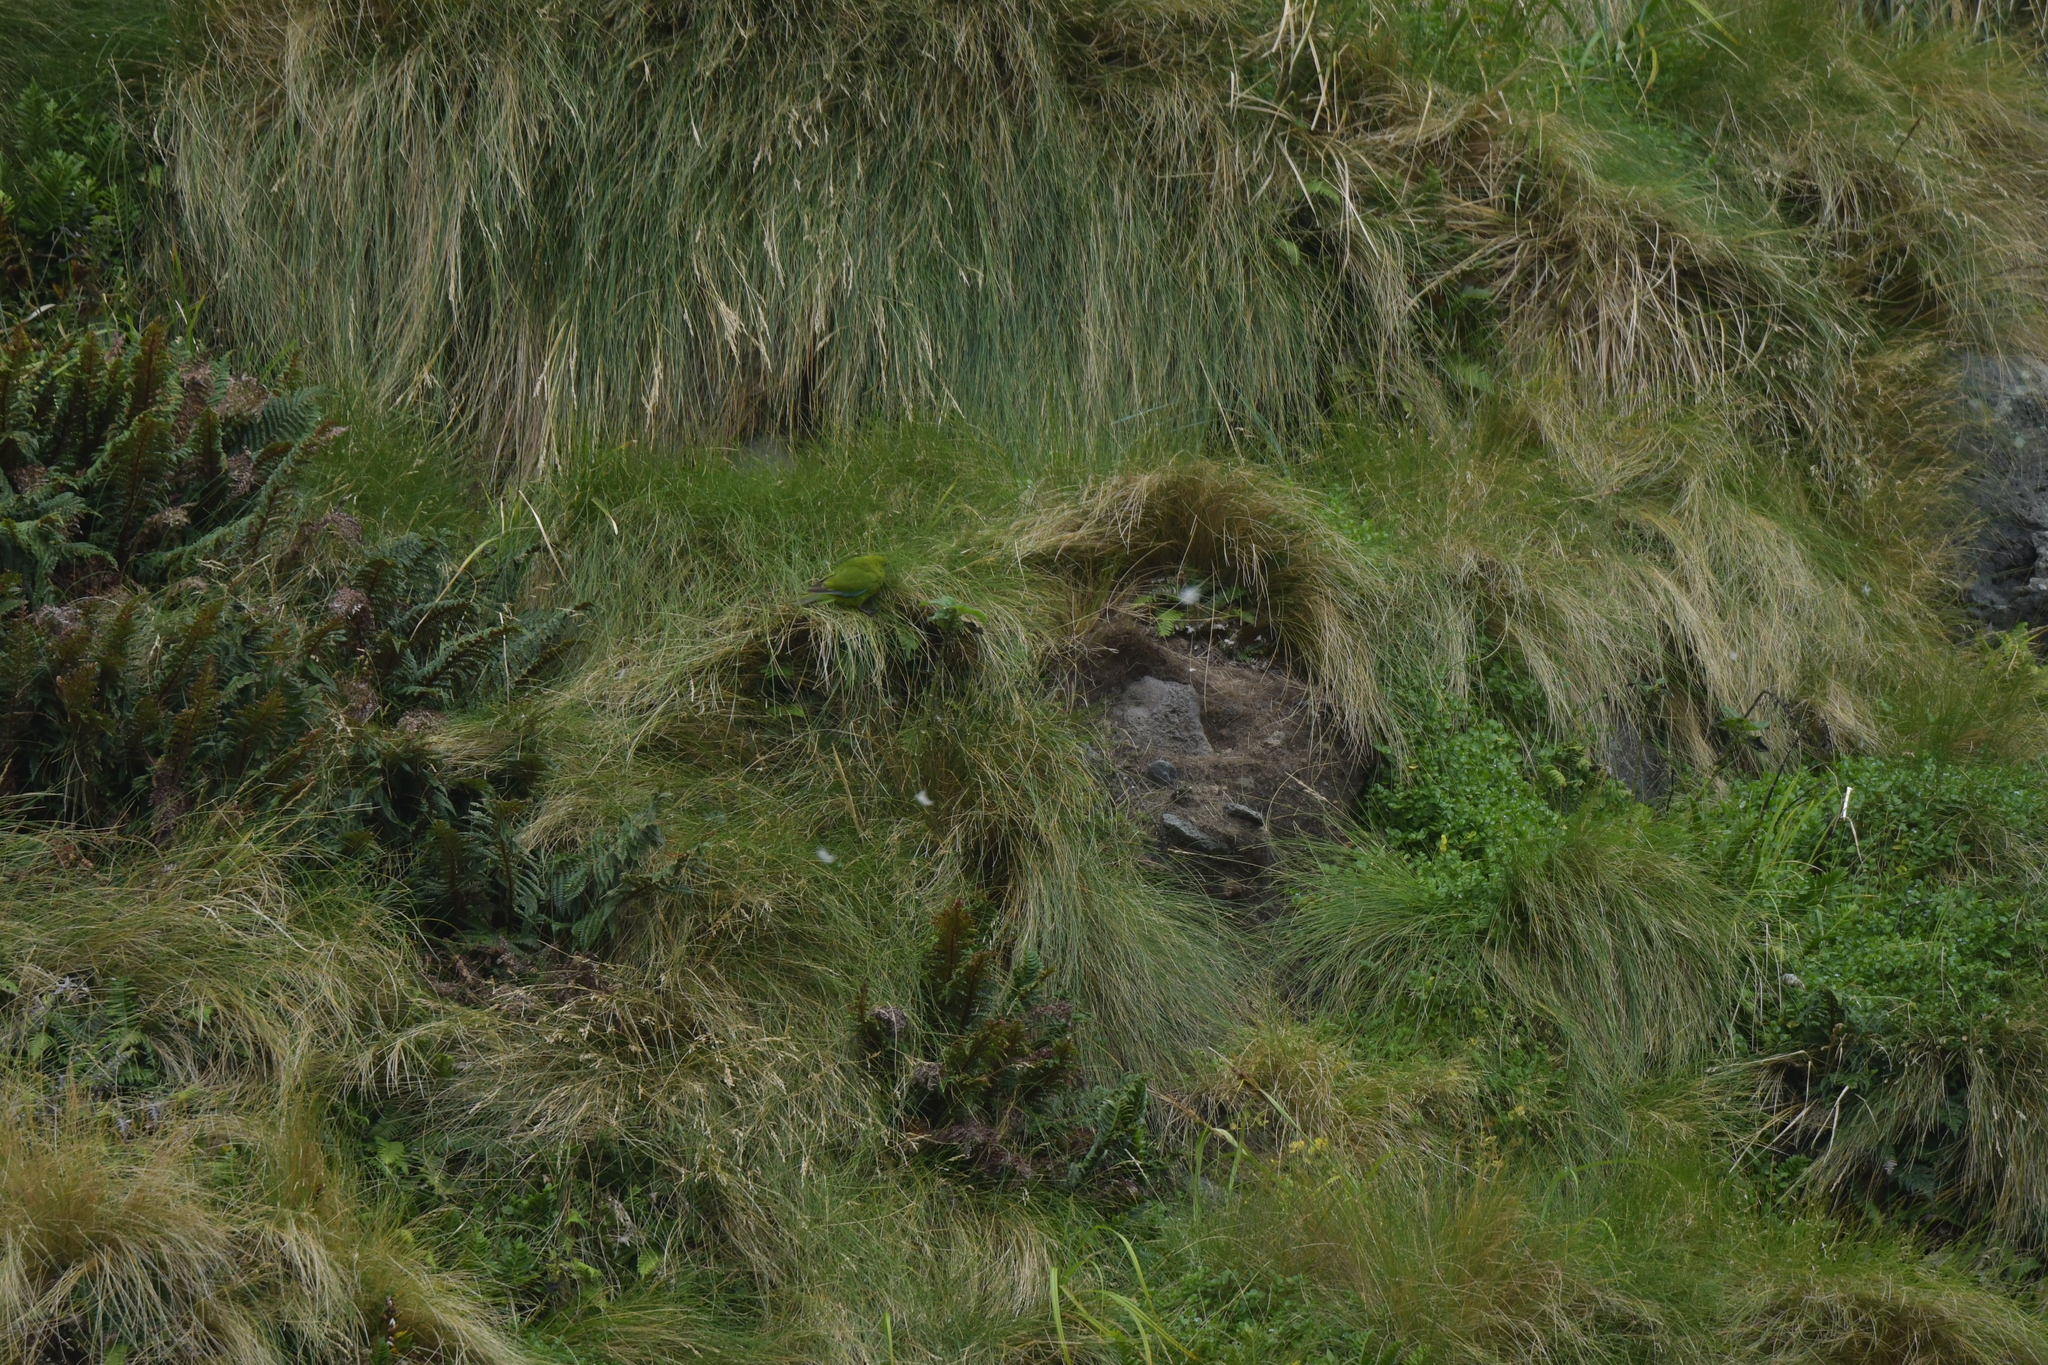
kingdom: Animalia
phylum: Chordata
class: Aves
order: Psittaciformes
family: Psittacidae
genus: Cyanoramphus
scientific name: Cyanoramphus novaezelandiae
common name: Red-fronted parakeet
